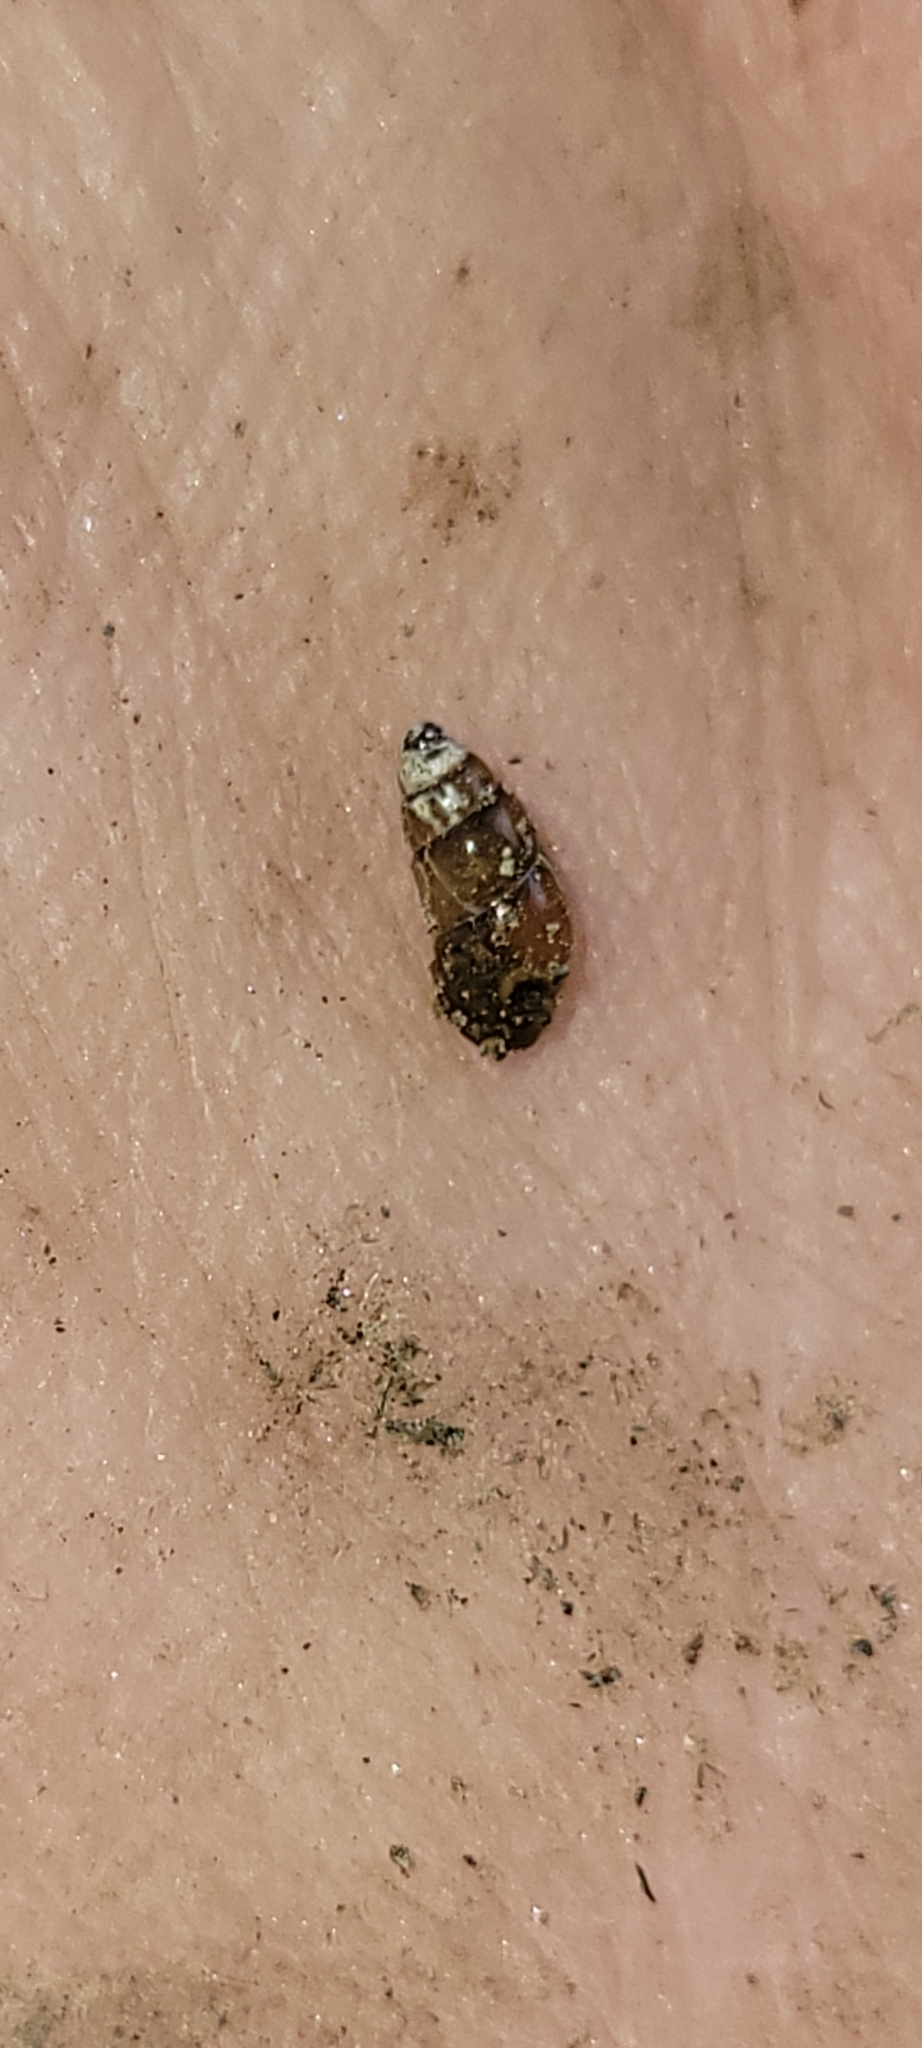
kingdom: Animalia
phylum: Mollusca
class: Gastropoda
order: Stylommatophora
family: Cochlicopidae
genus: Cochlicopa
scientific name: Cochlicopa lubrica
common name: Glossy pillar snail
